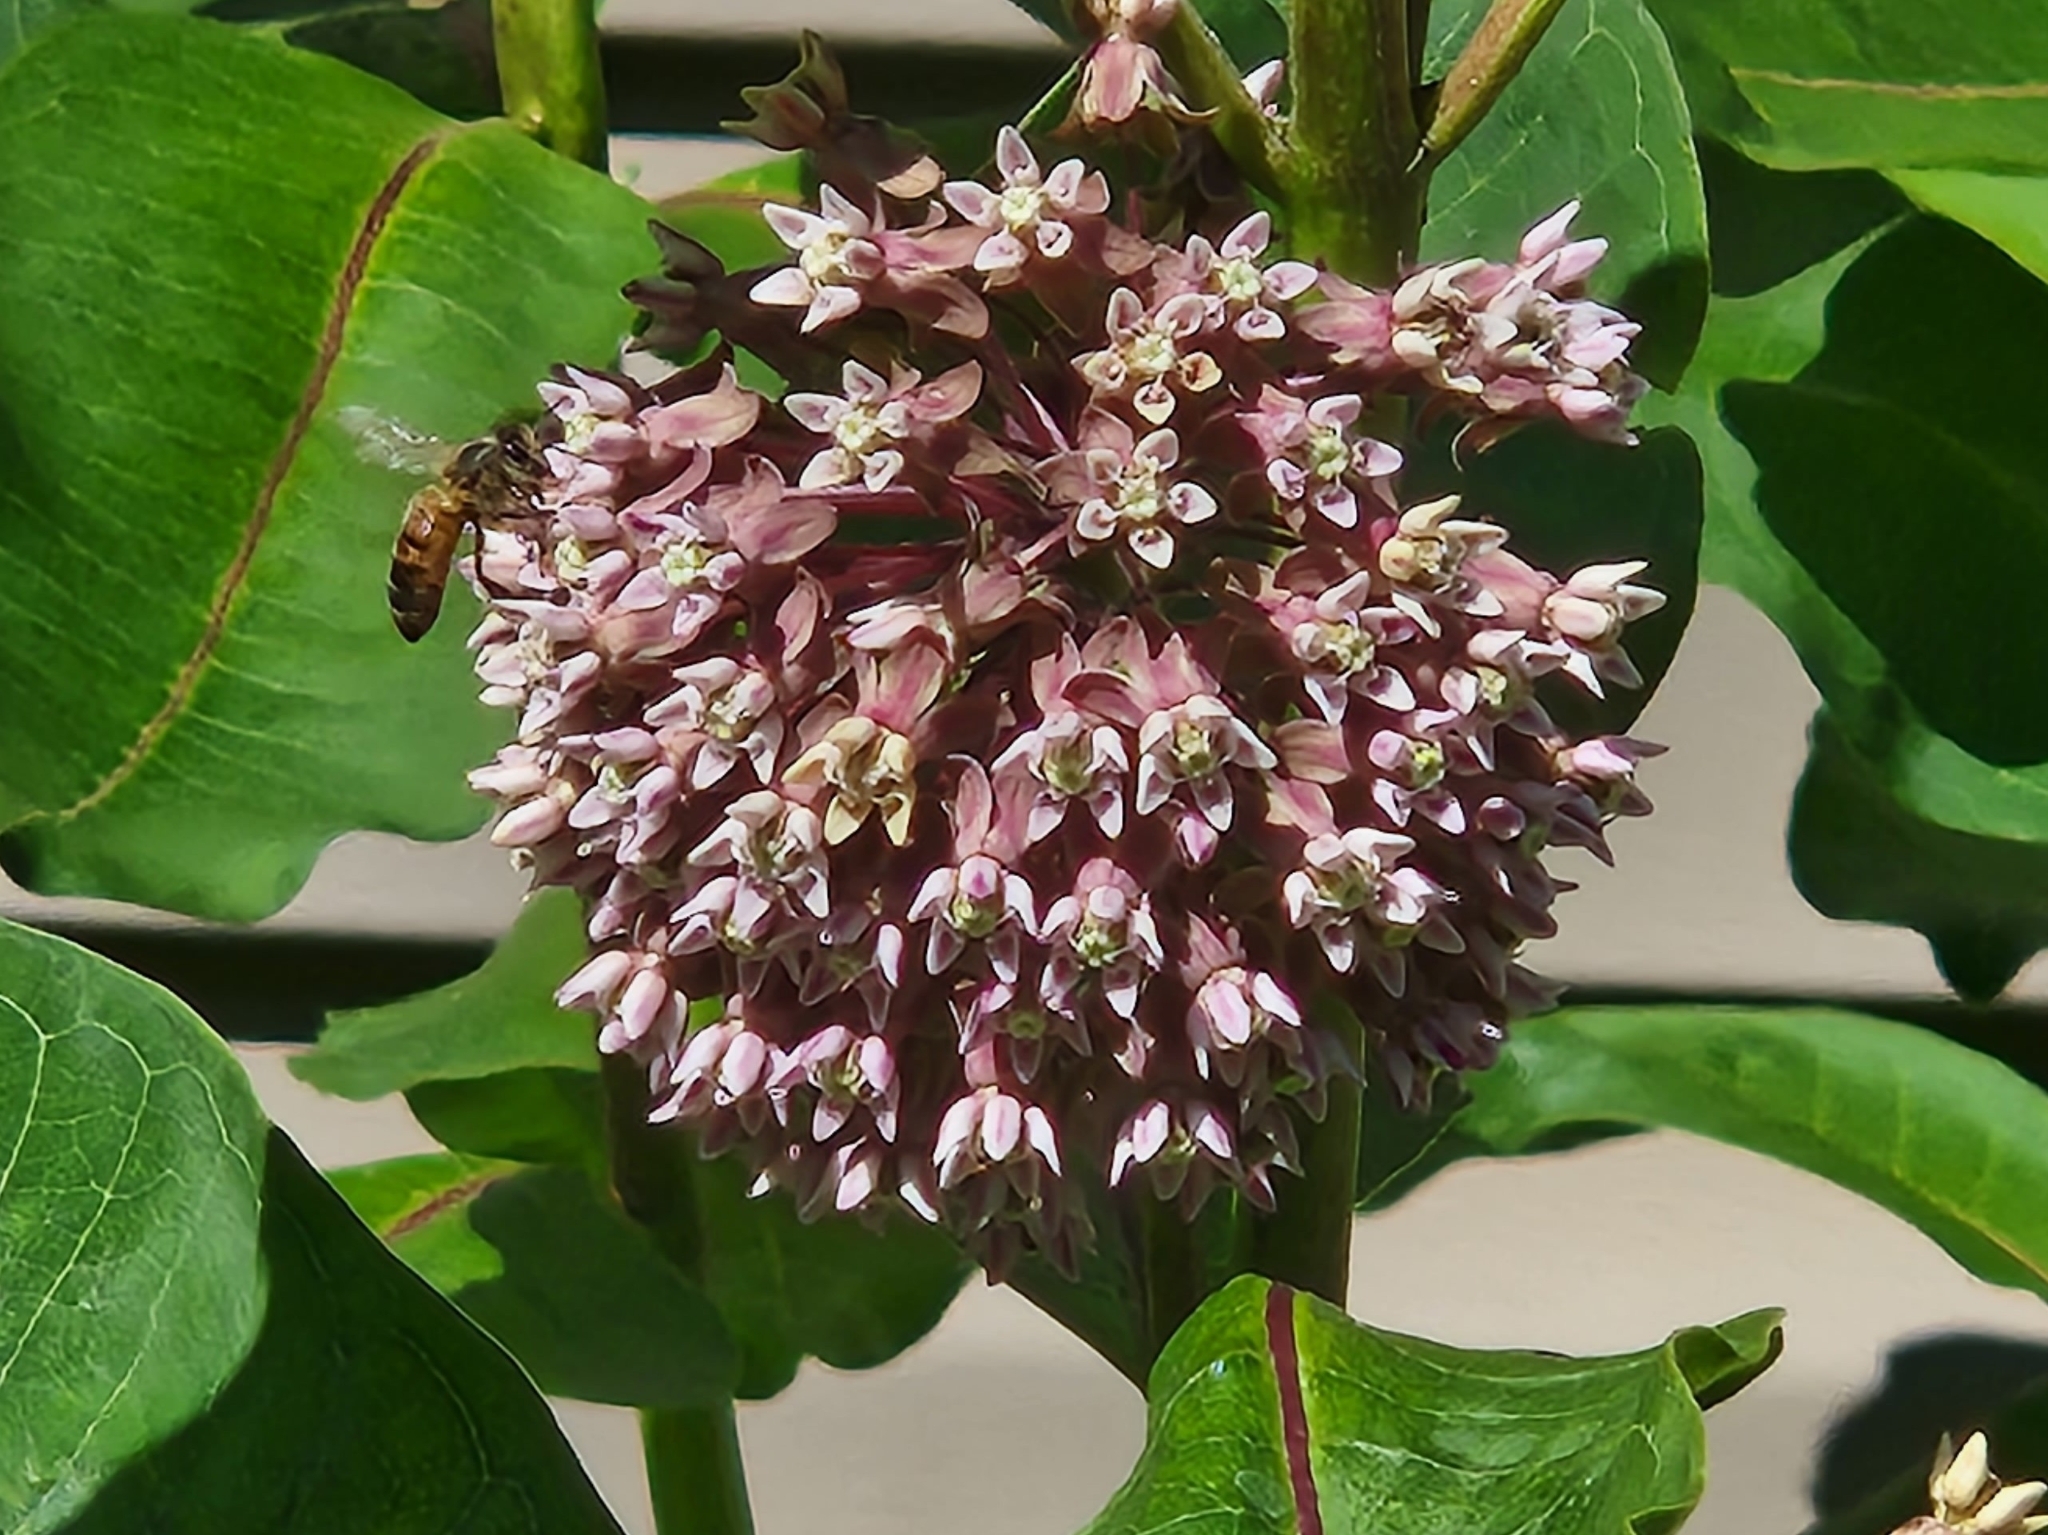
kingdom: Animalia
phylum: Arthropoda
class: Insecta
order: Hymenoptera
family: Apidae
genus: Apis
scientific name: Apis mellifera
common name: Honey bee
